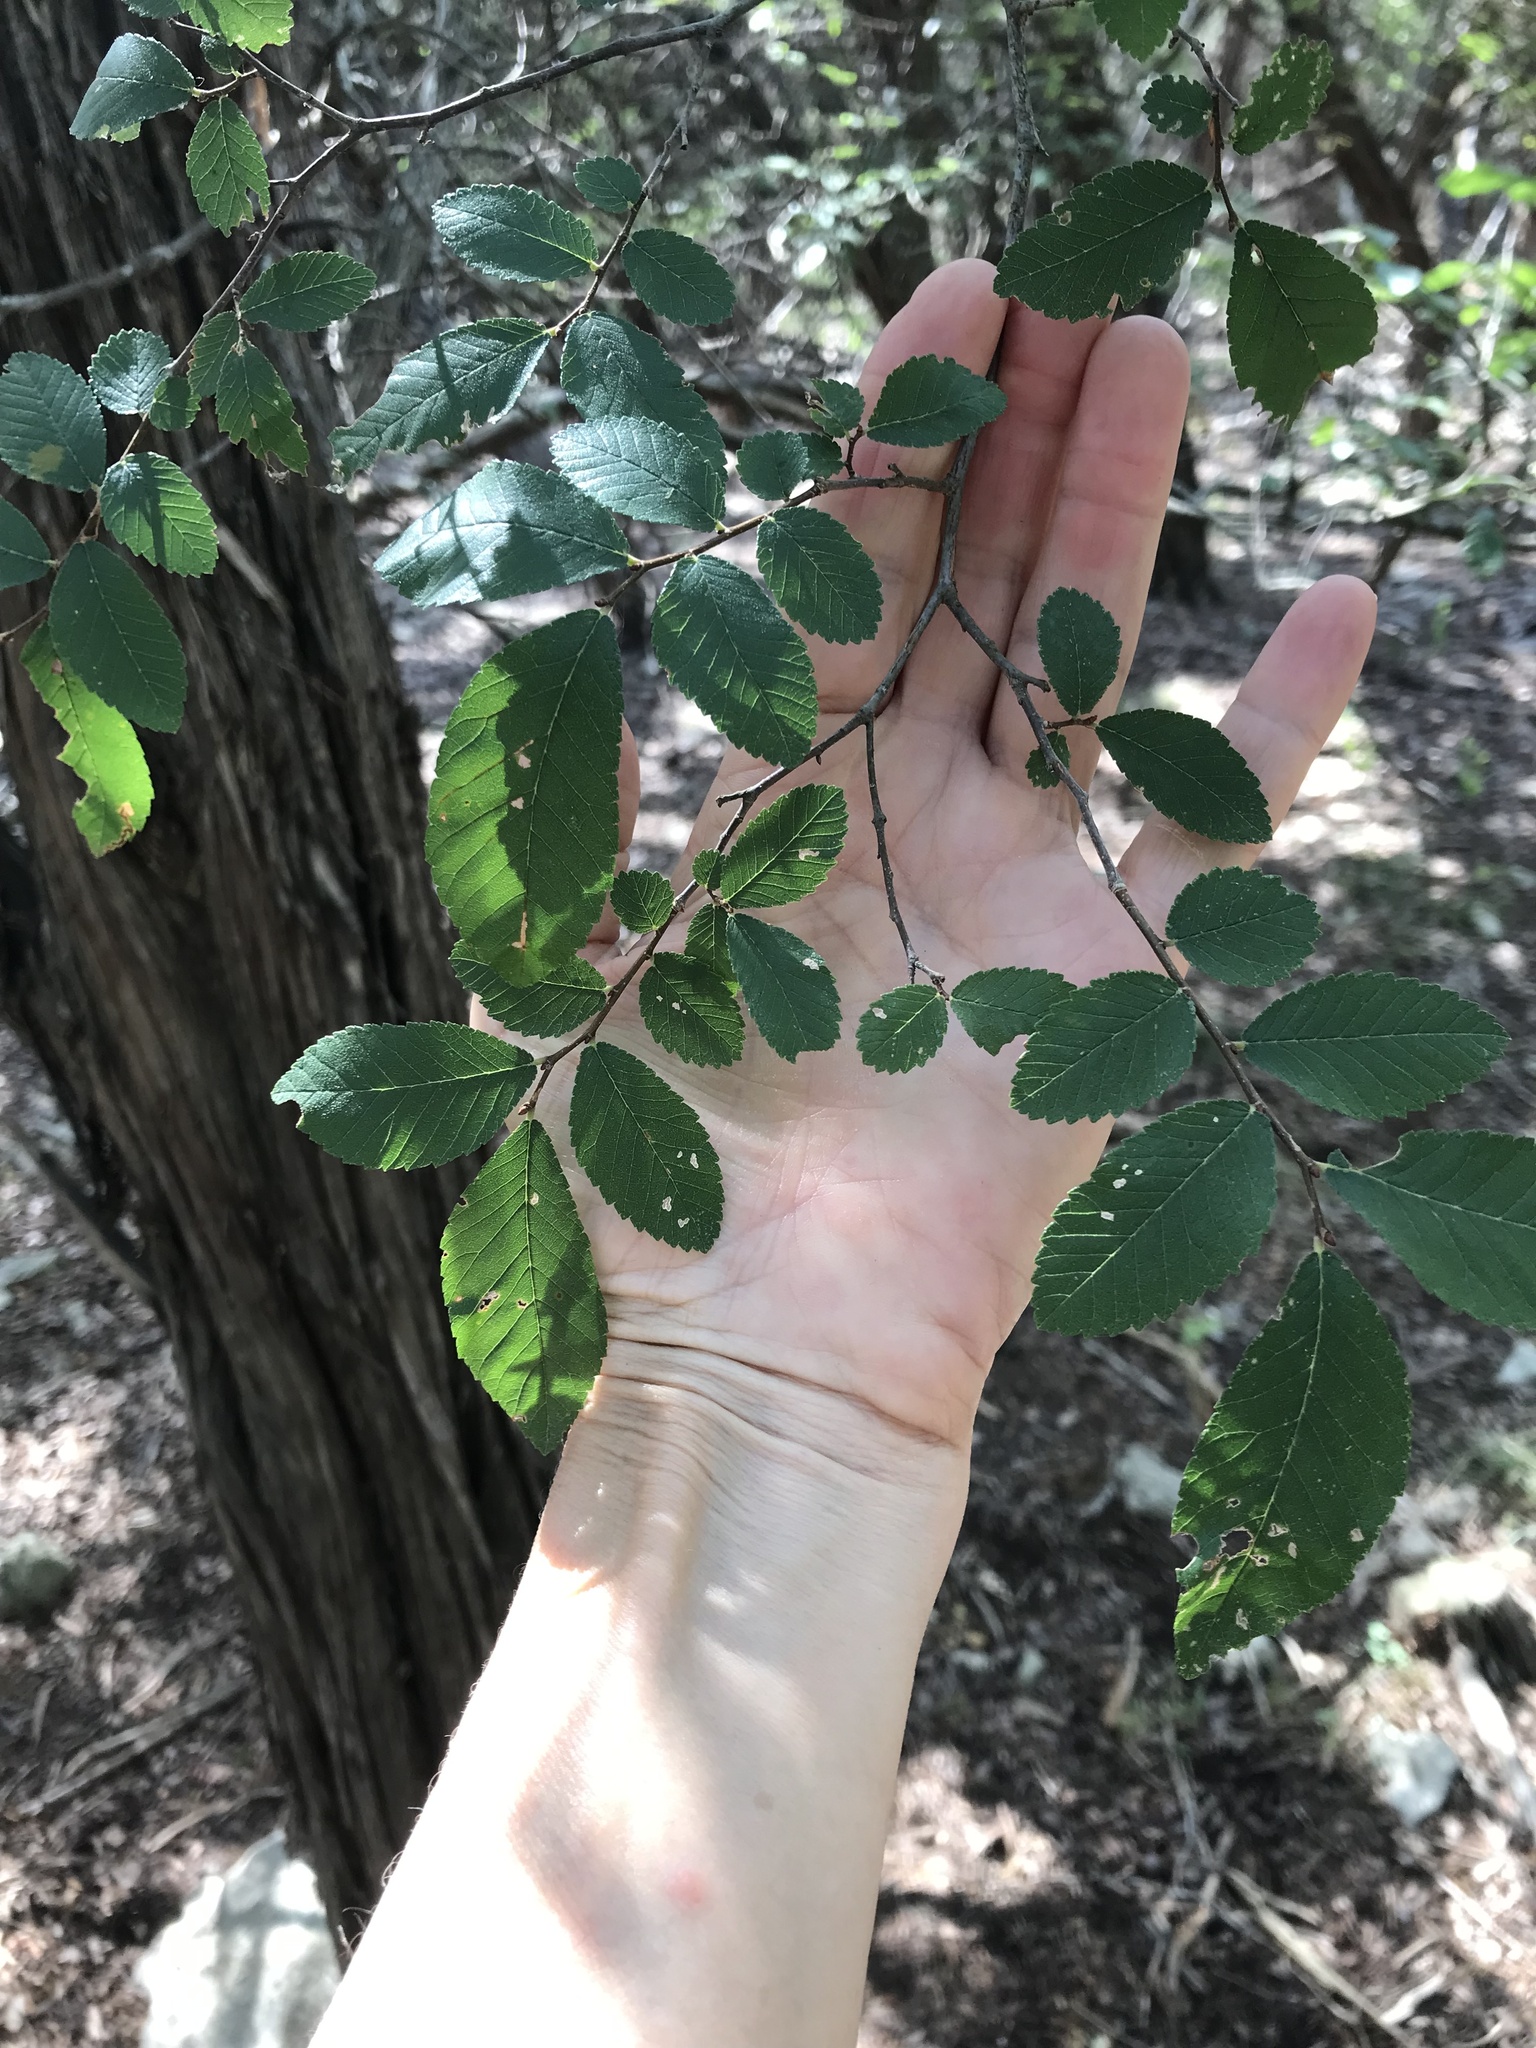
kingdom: Plantae
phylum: Tracheophyta
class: Magnoliopsida
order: Rosales
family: Ulmaceae
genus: Ulmus
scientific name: Ulmus crassifolia
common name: Basket elm
